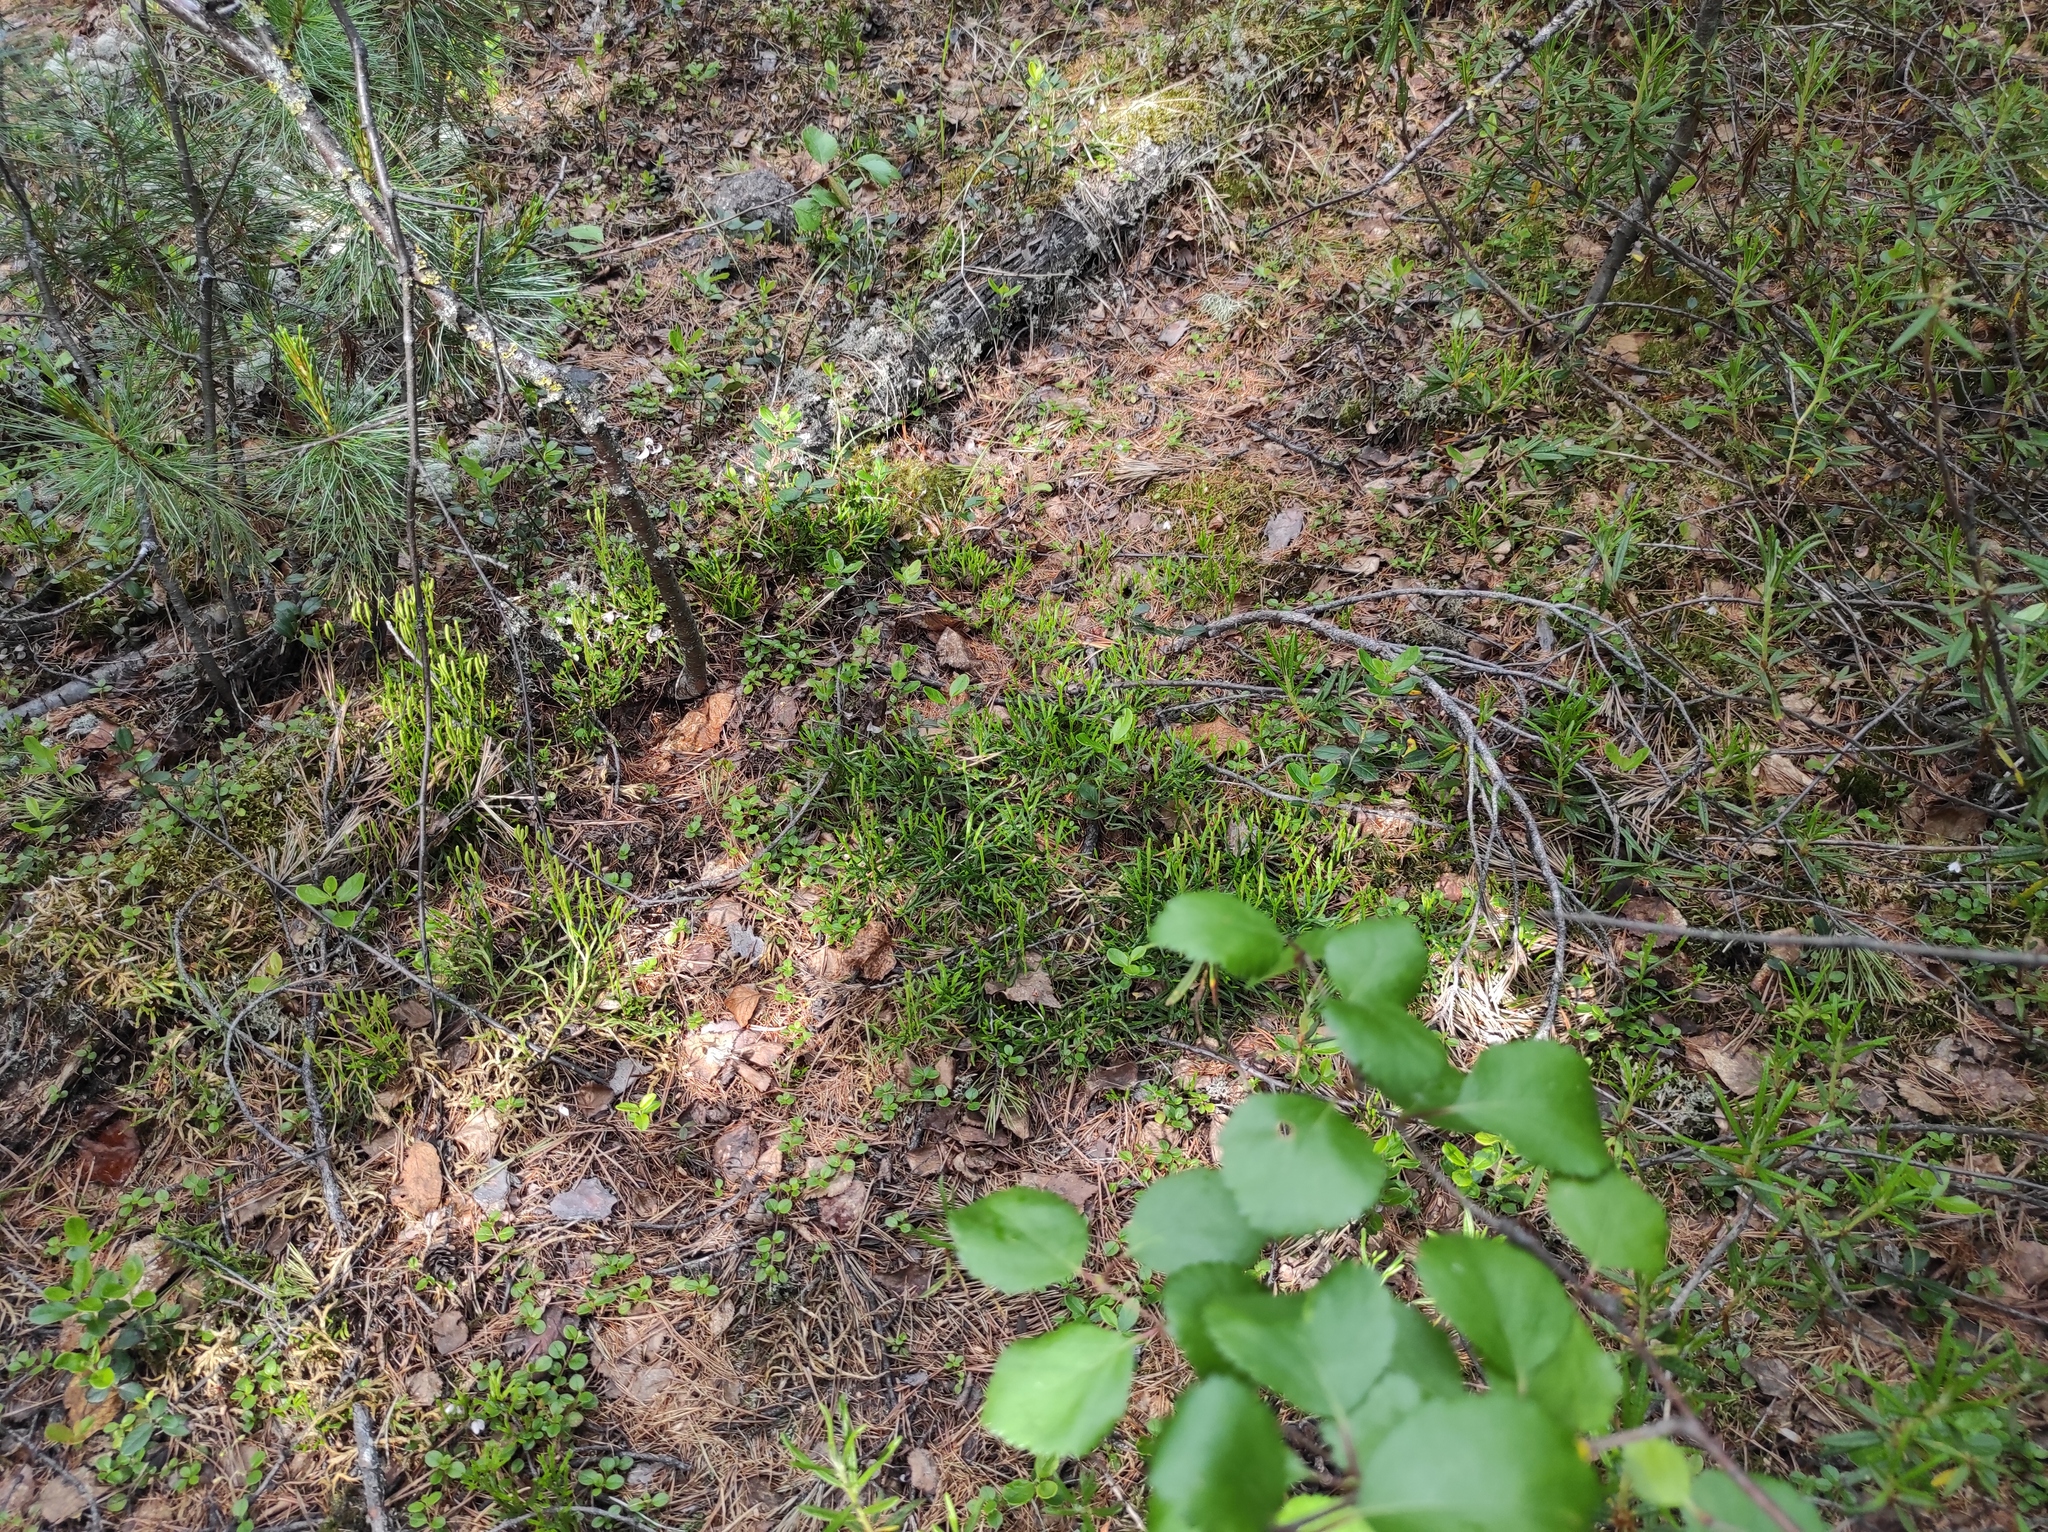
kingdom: Plantae
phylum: Tracheophyta
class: Lycopodiopsida
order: Lycopodiales
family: Lycopodiaceae
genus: Diphasiastrum
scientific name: Diphasiastrum complanatum
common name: Northern running-pine
